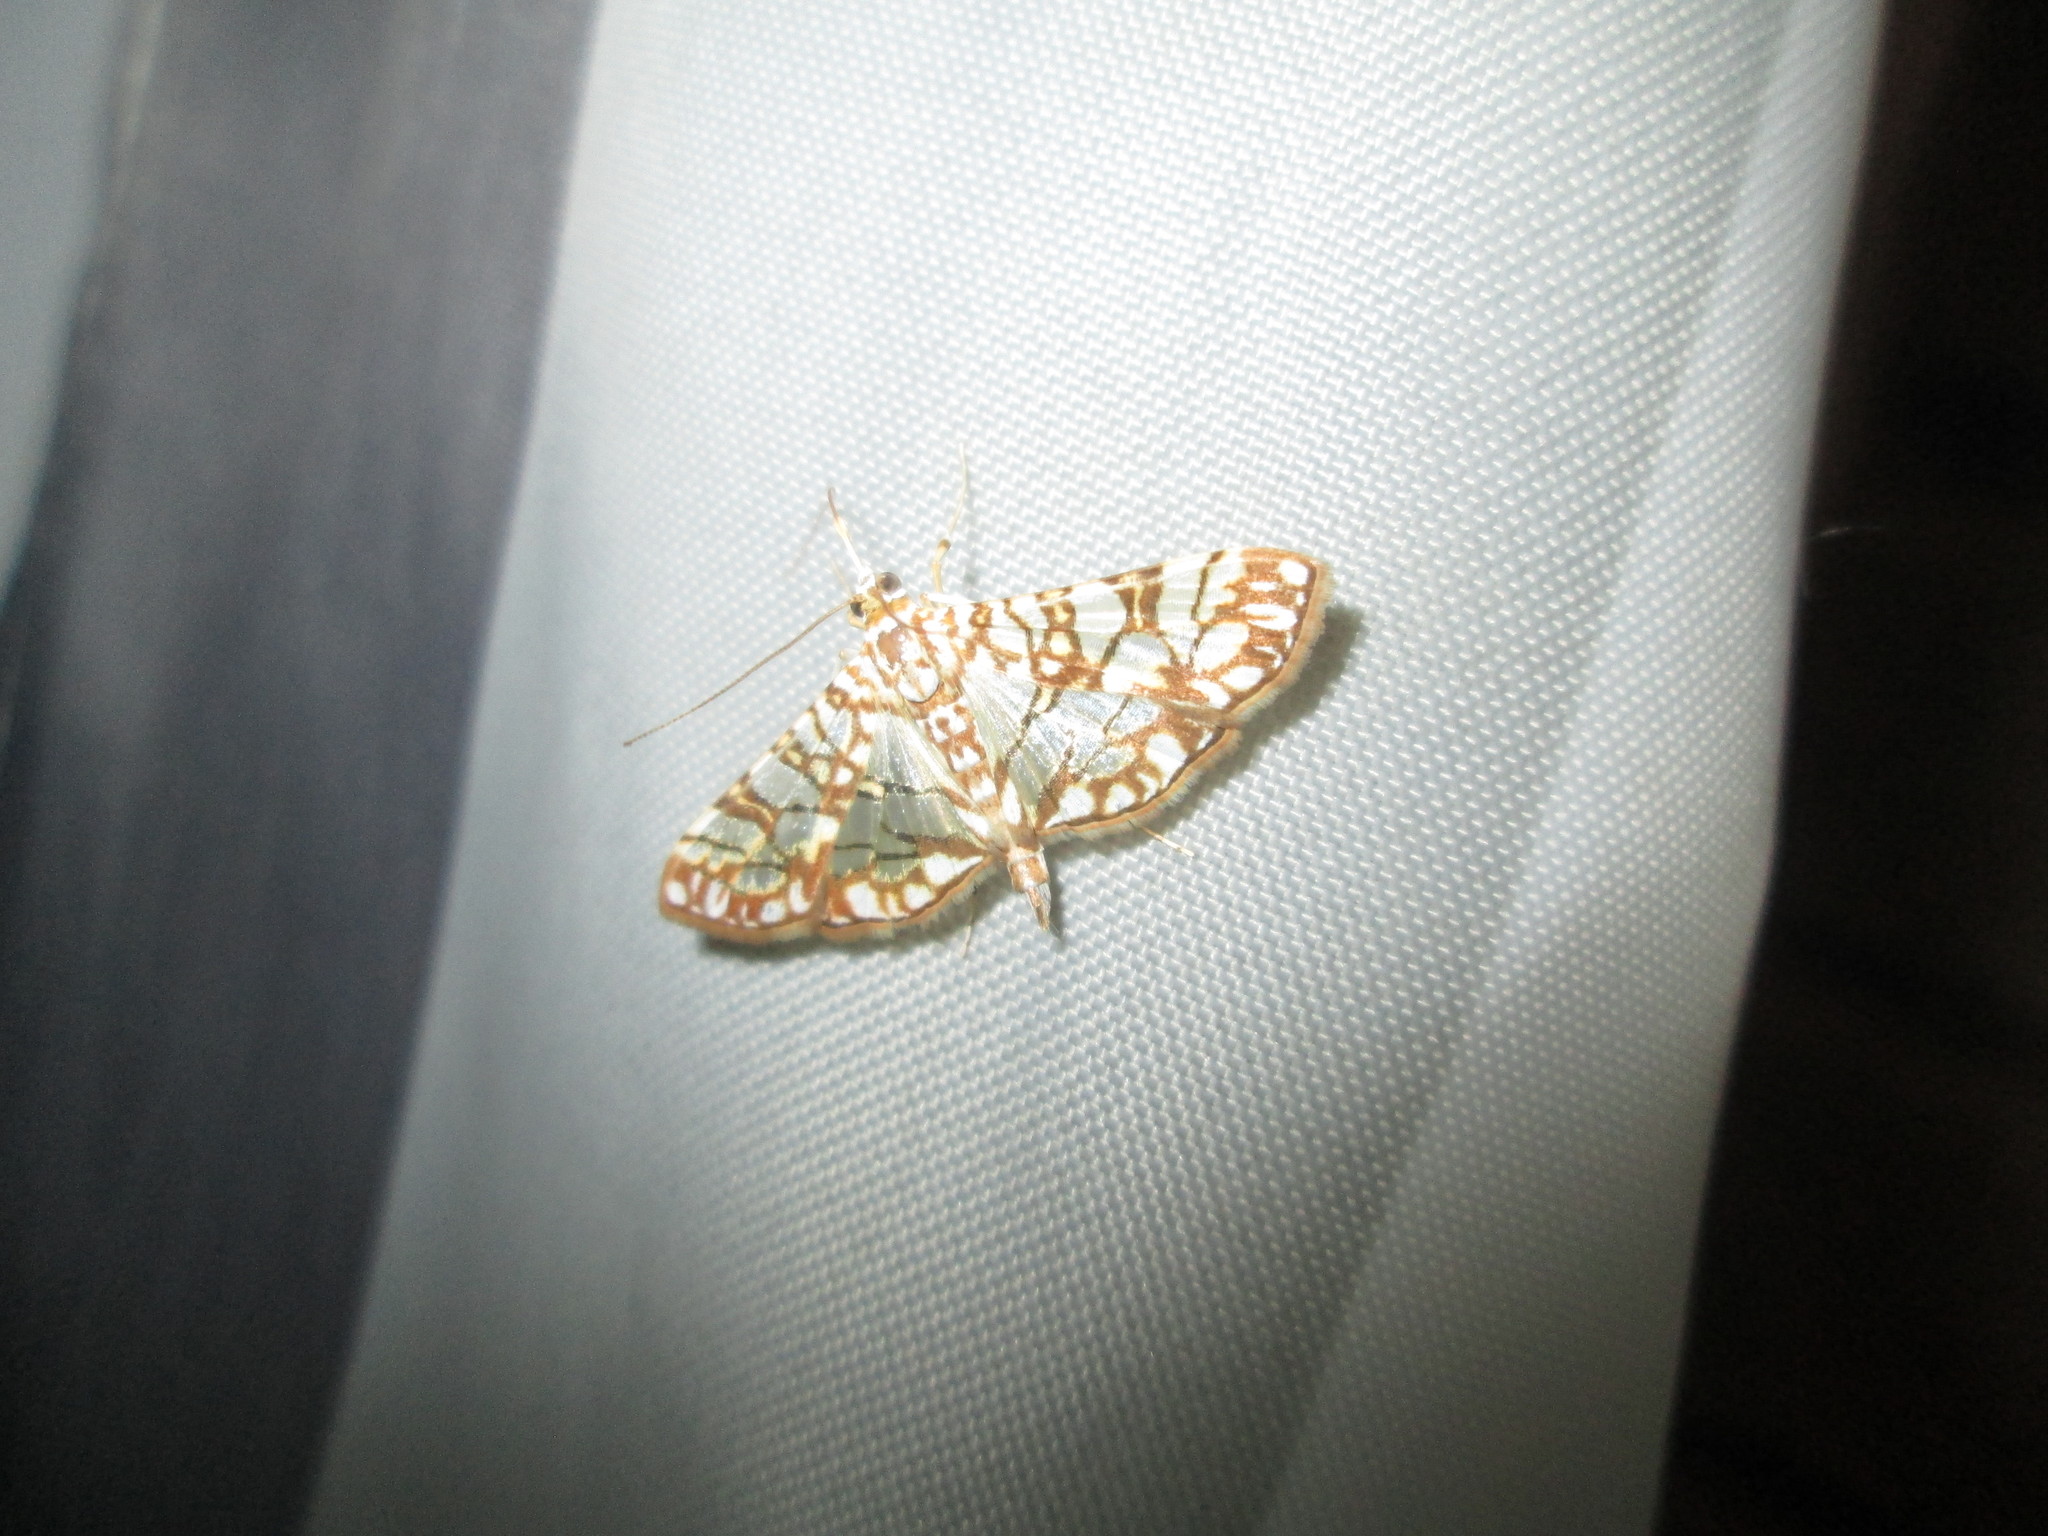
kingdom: Animalia
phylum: Arthropoda
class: Insecta
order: Lepidoptera
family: Crambidae
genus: Synclera
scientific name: Synclera traducalis
